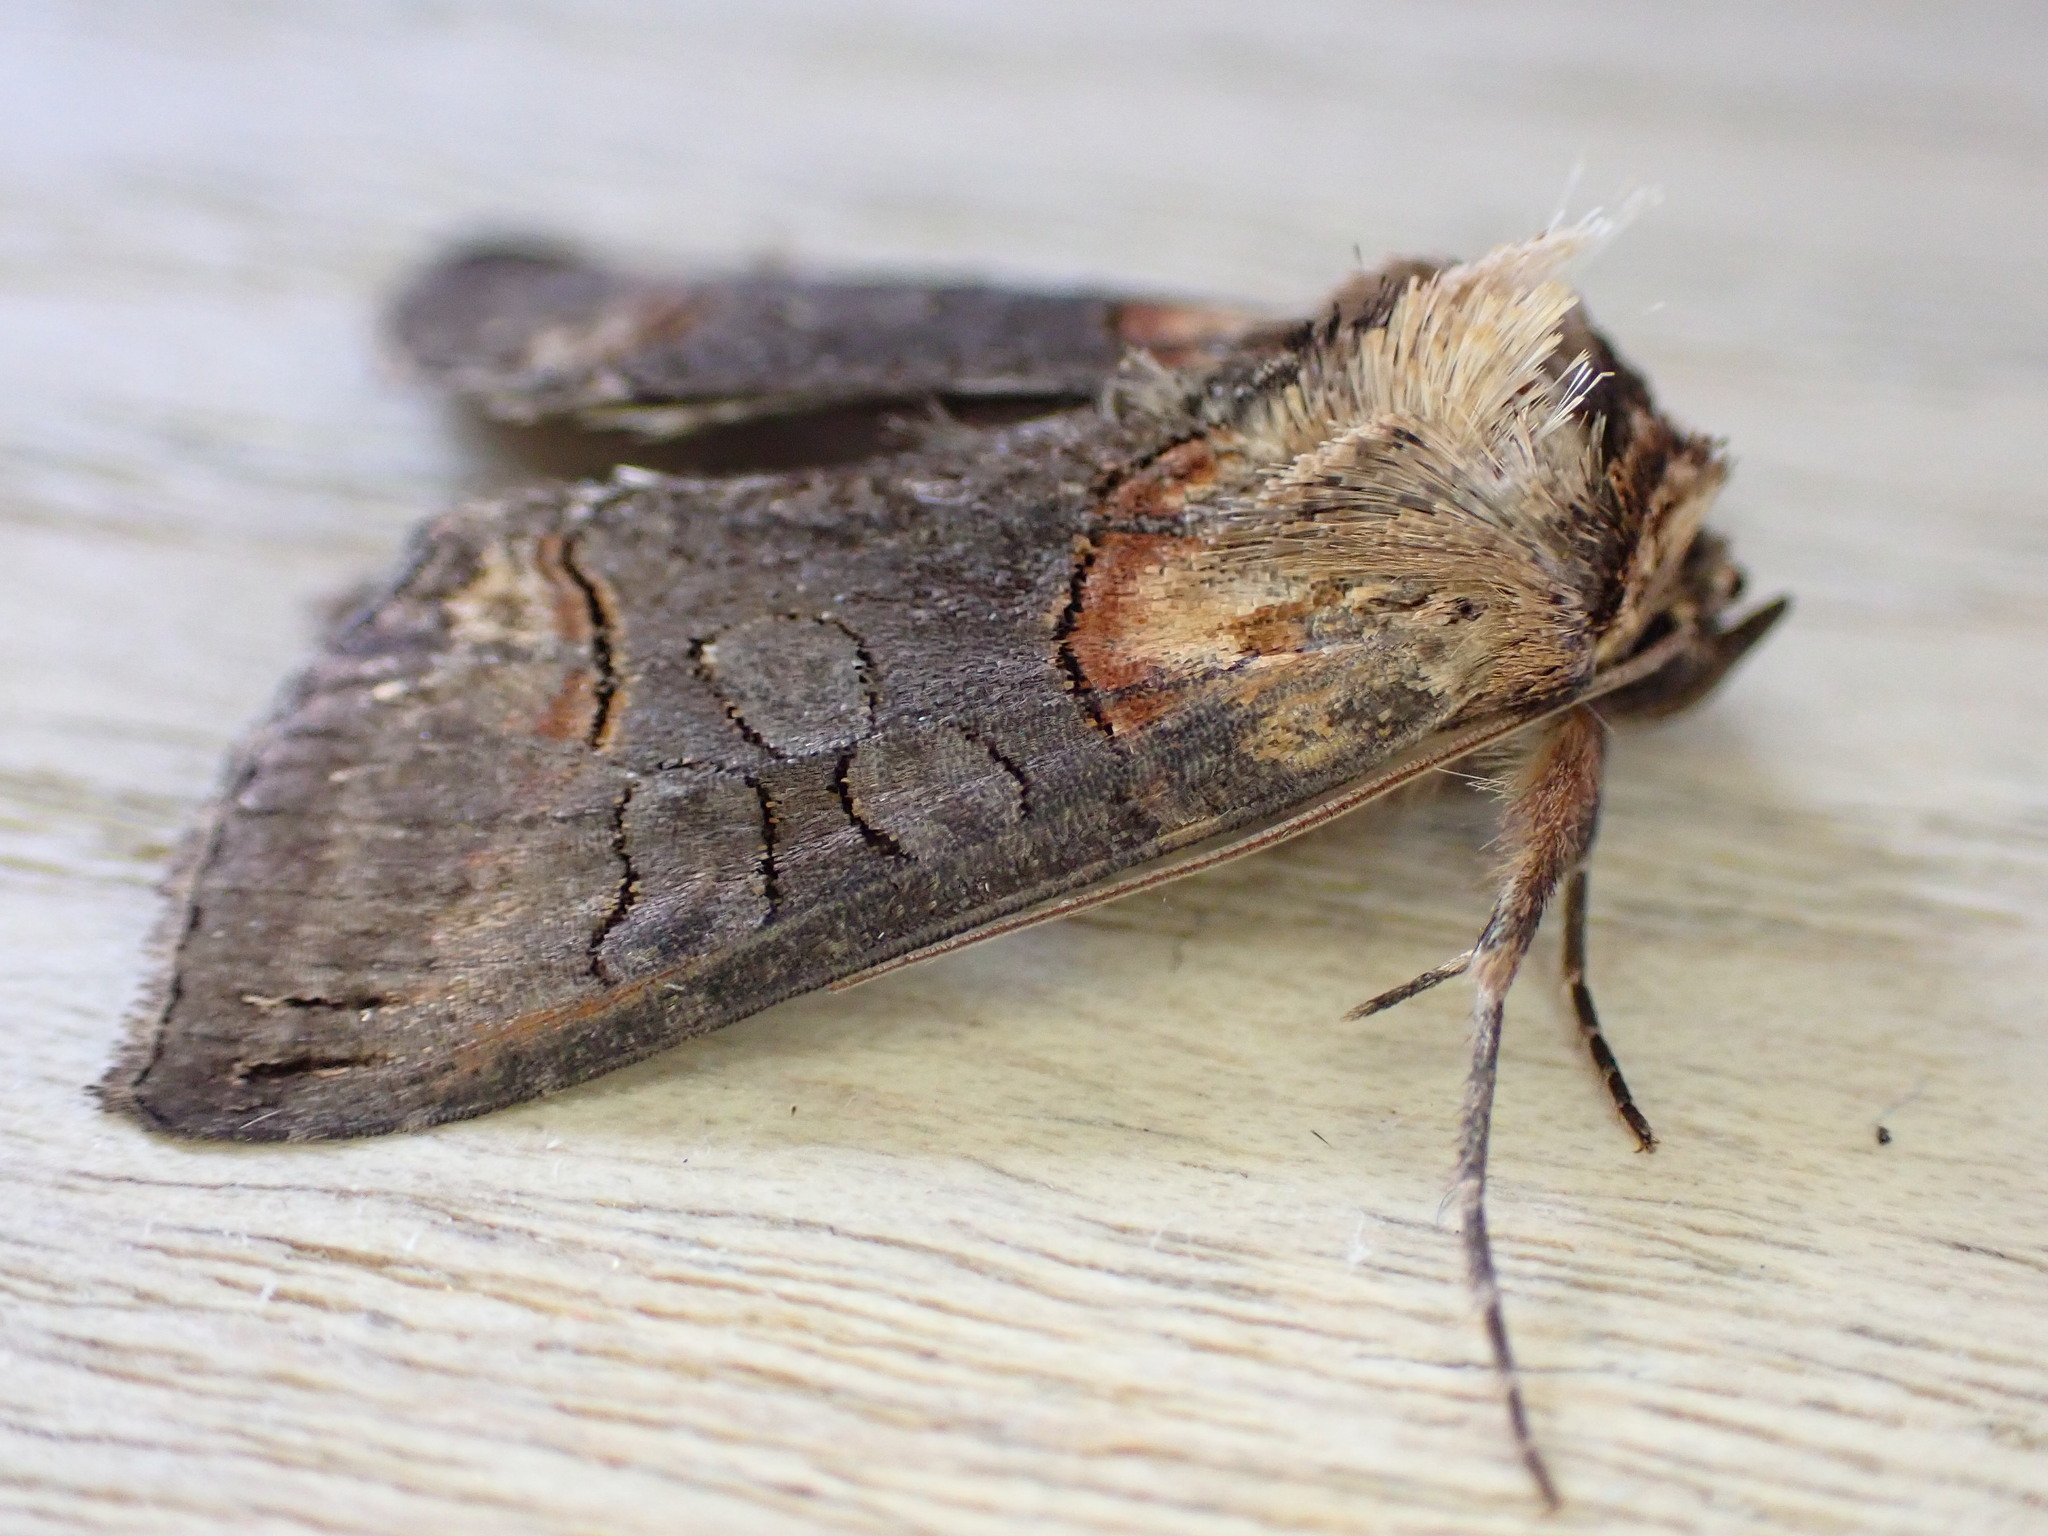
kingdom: Animalia
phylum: Arthropoda
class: Insecta
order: Lepidoptera
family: Noctuidae
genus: Abrostola
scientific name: Abrostola triplasia
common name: Dark spectacle
